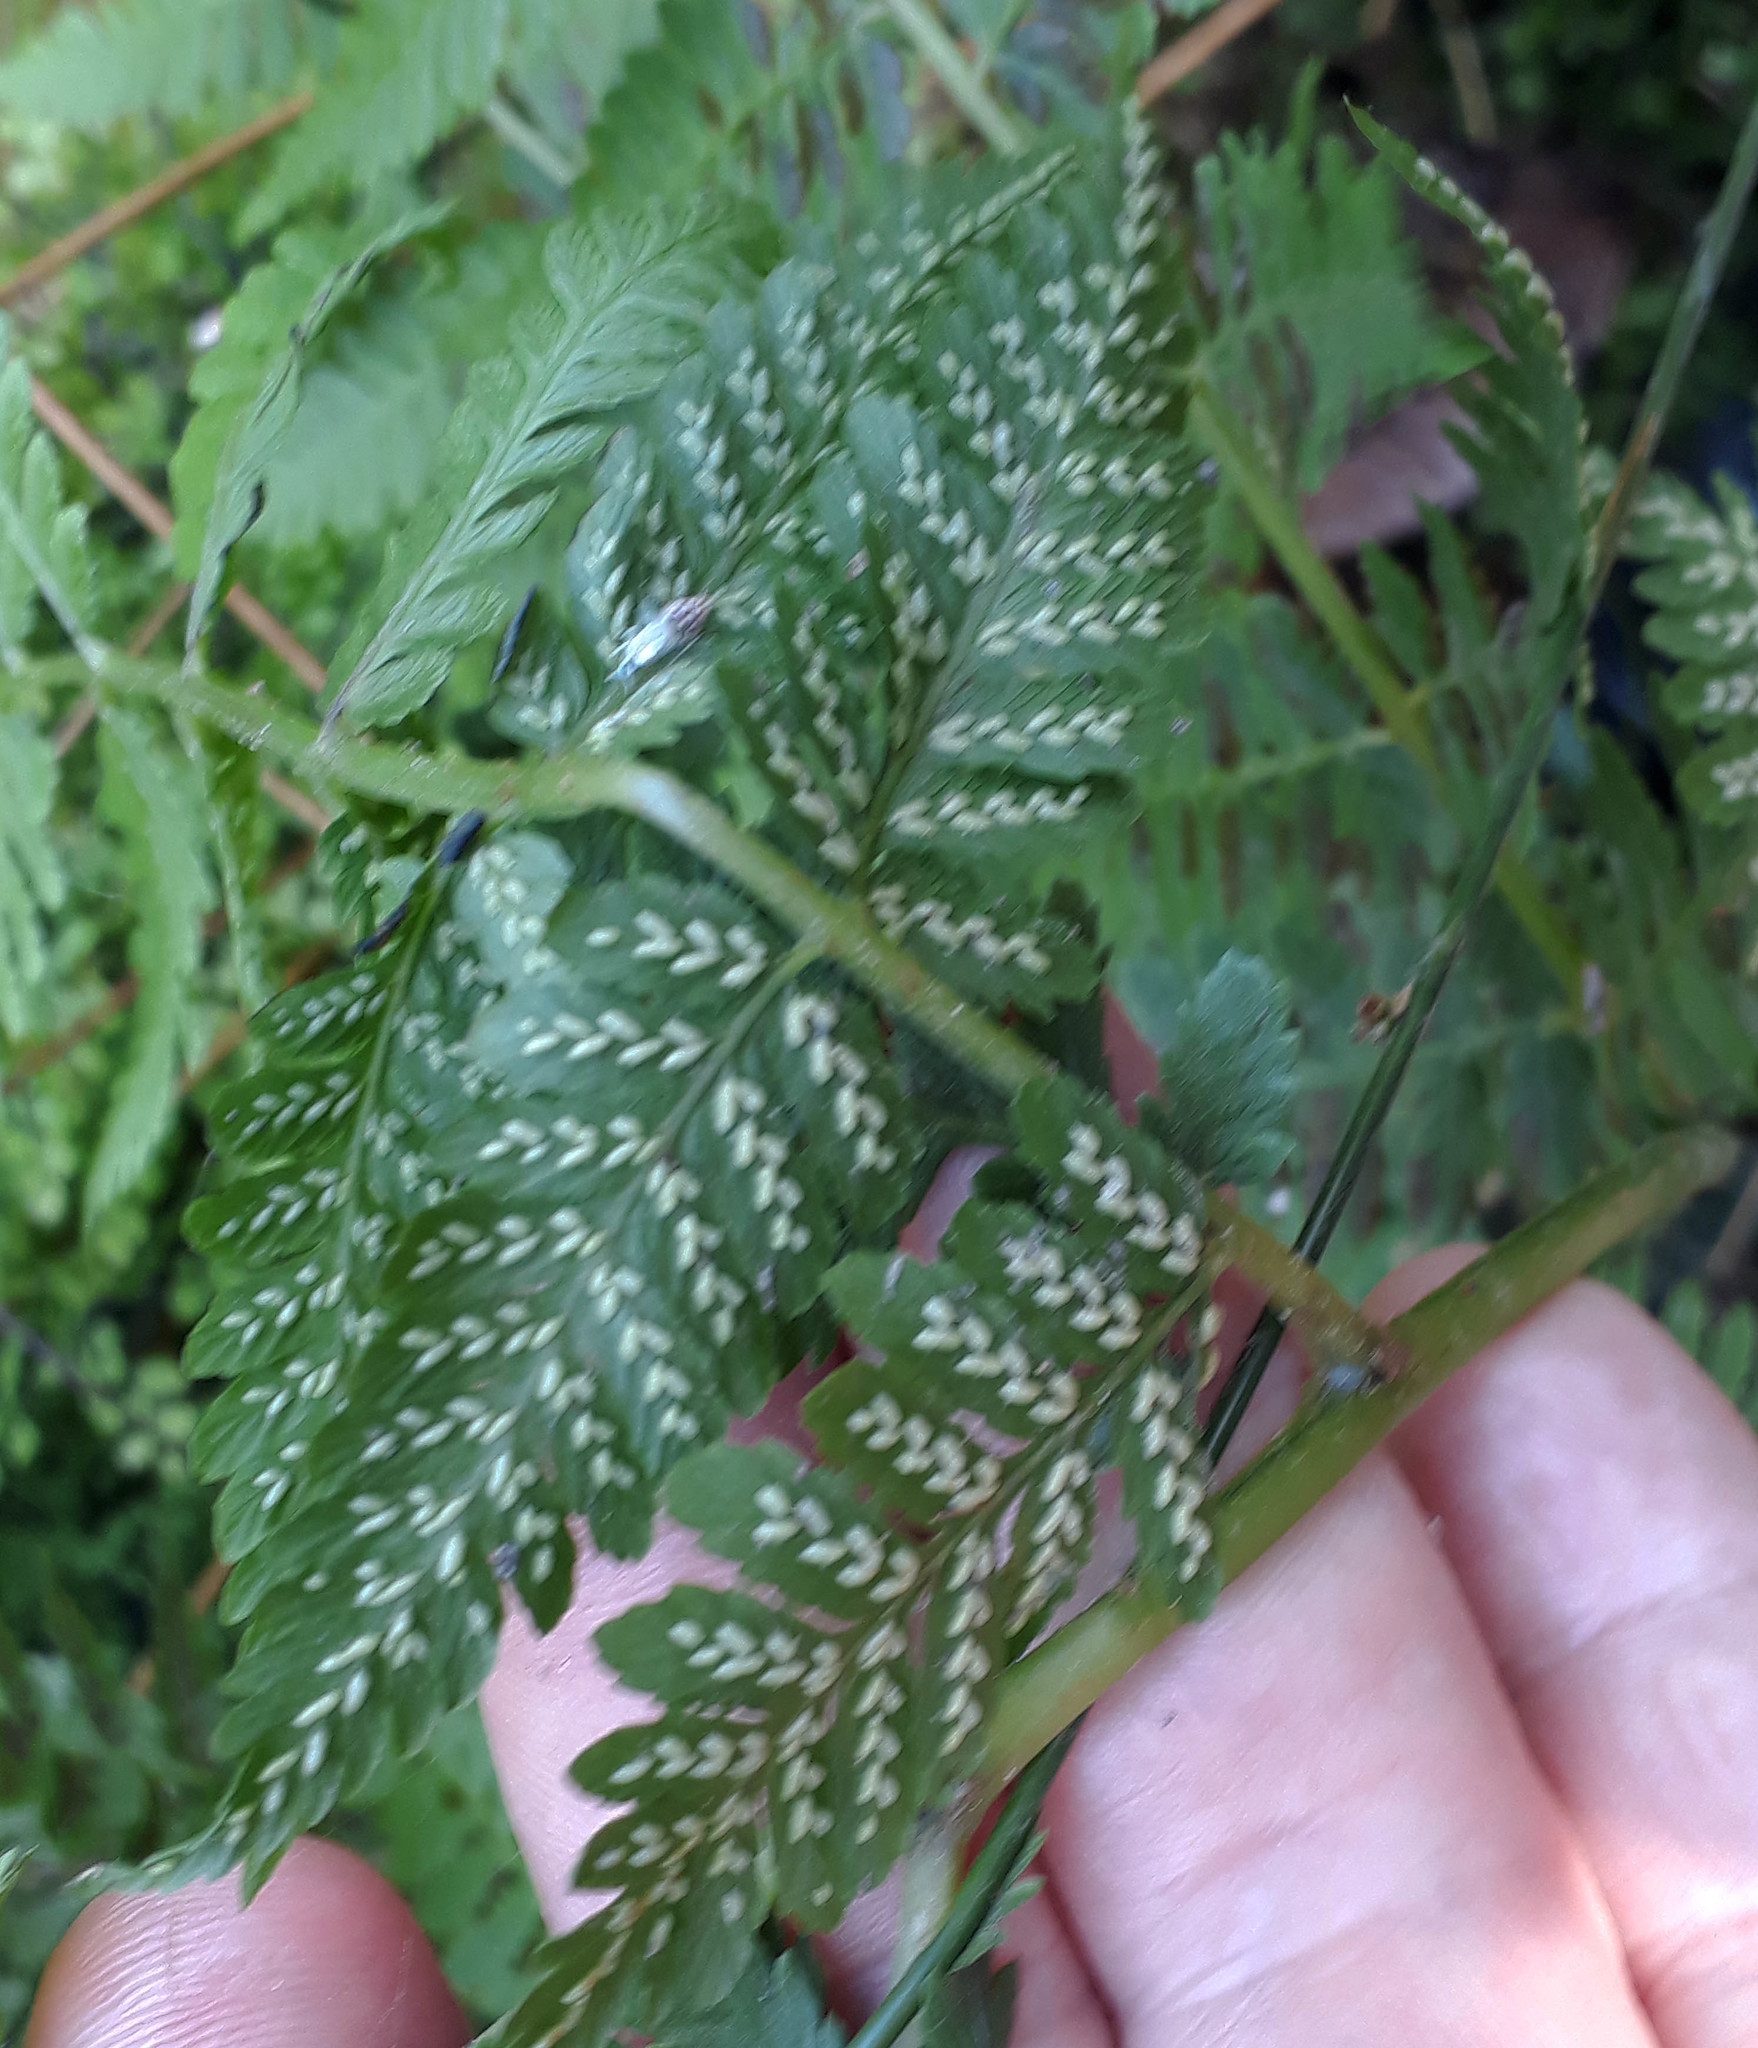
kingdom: Plantae
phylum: Tracheophyta
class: Polypodiopsida
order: Polypodiales
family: Athyriaceae
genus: Diplazium
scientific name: Diplazium australe
